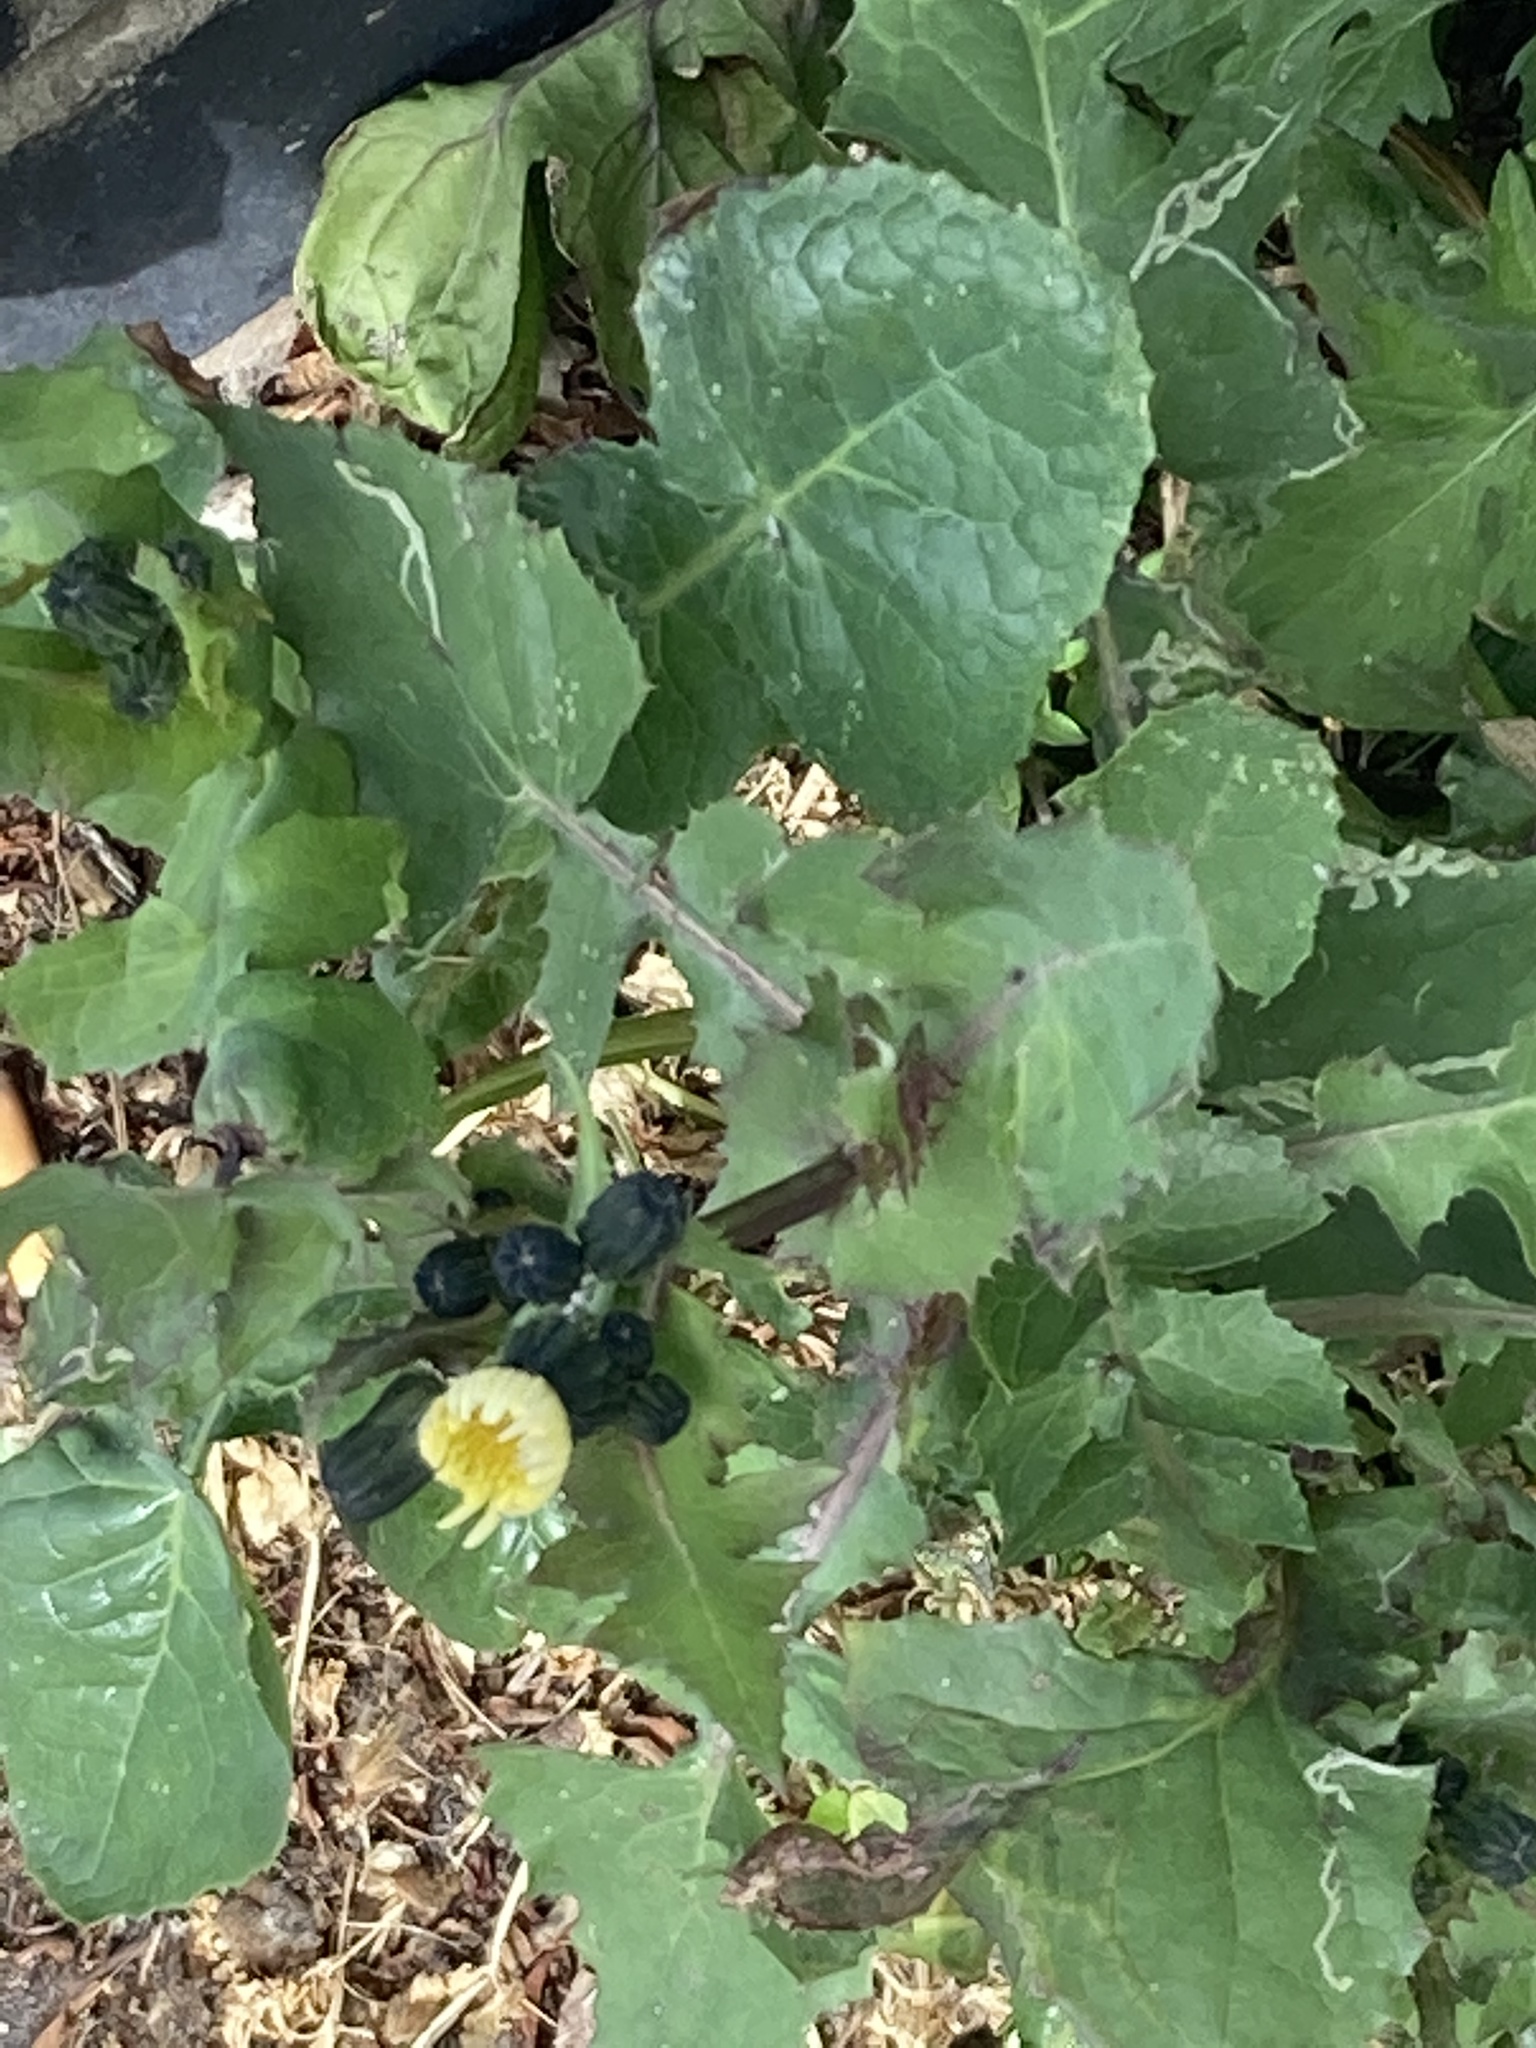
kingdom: Plantae
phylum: Tracheophyta
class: Magnoliopsida
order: Asterales
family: Asteraceae
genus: Sonchus
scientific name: Sonchus oleraceus
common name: Common sowthistle
